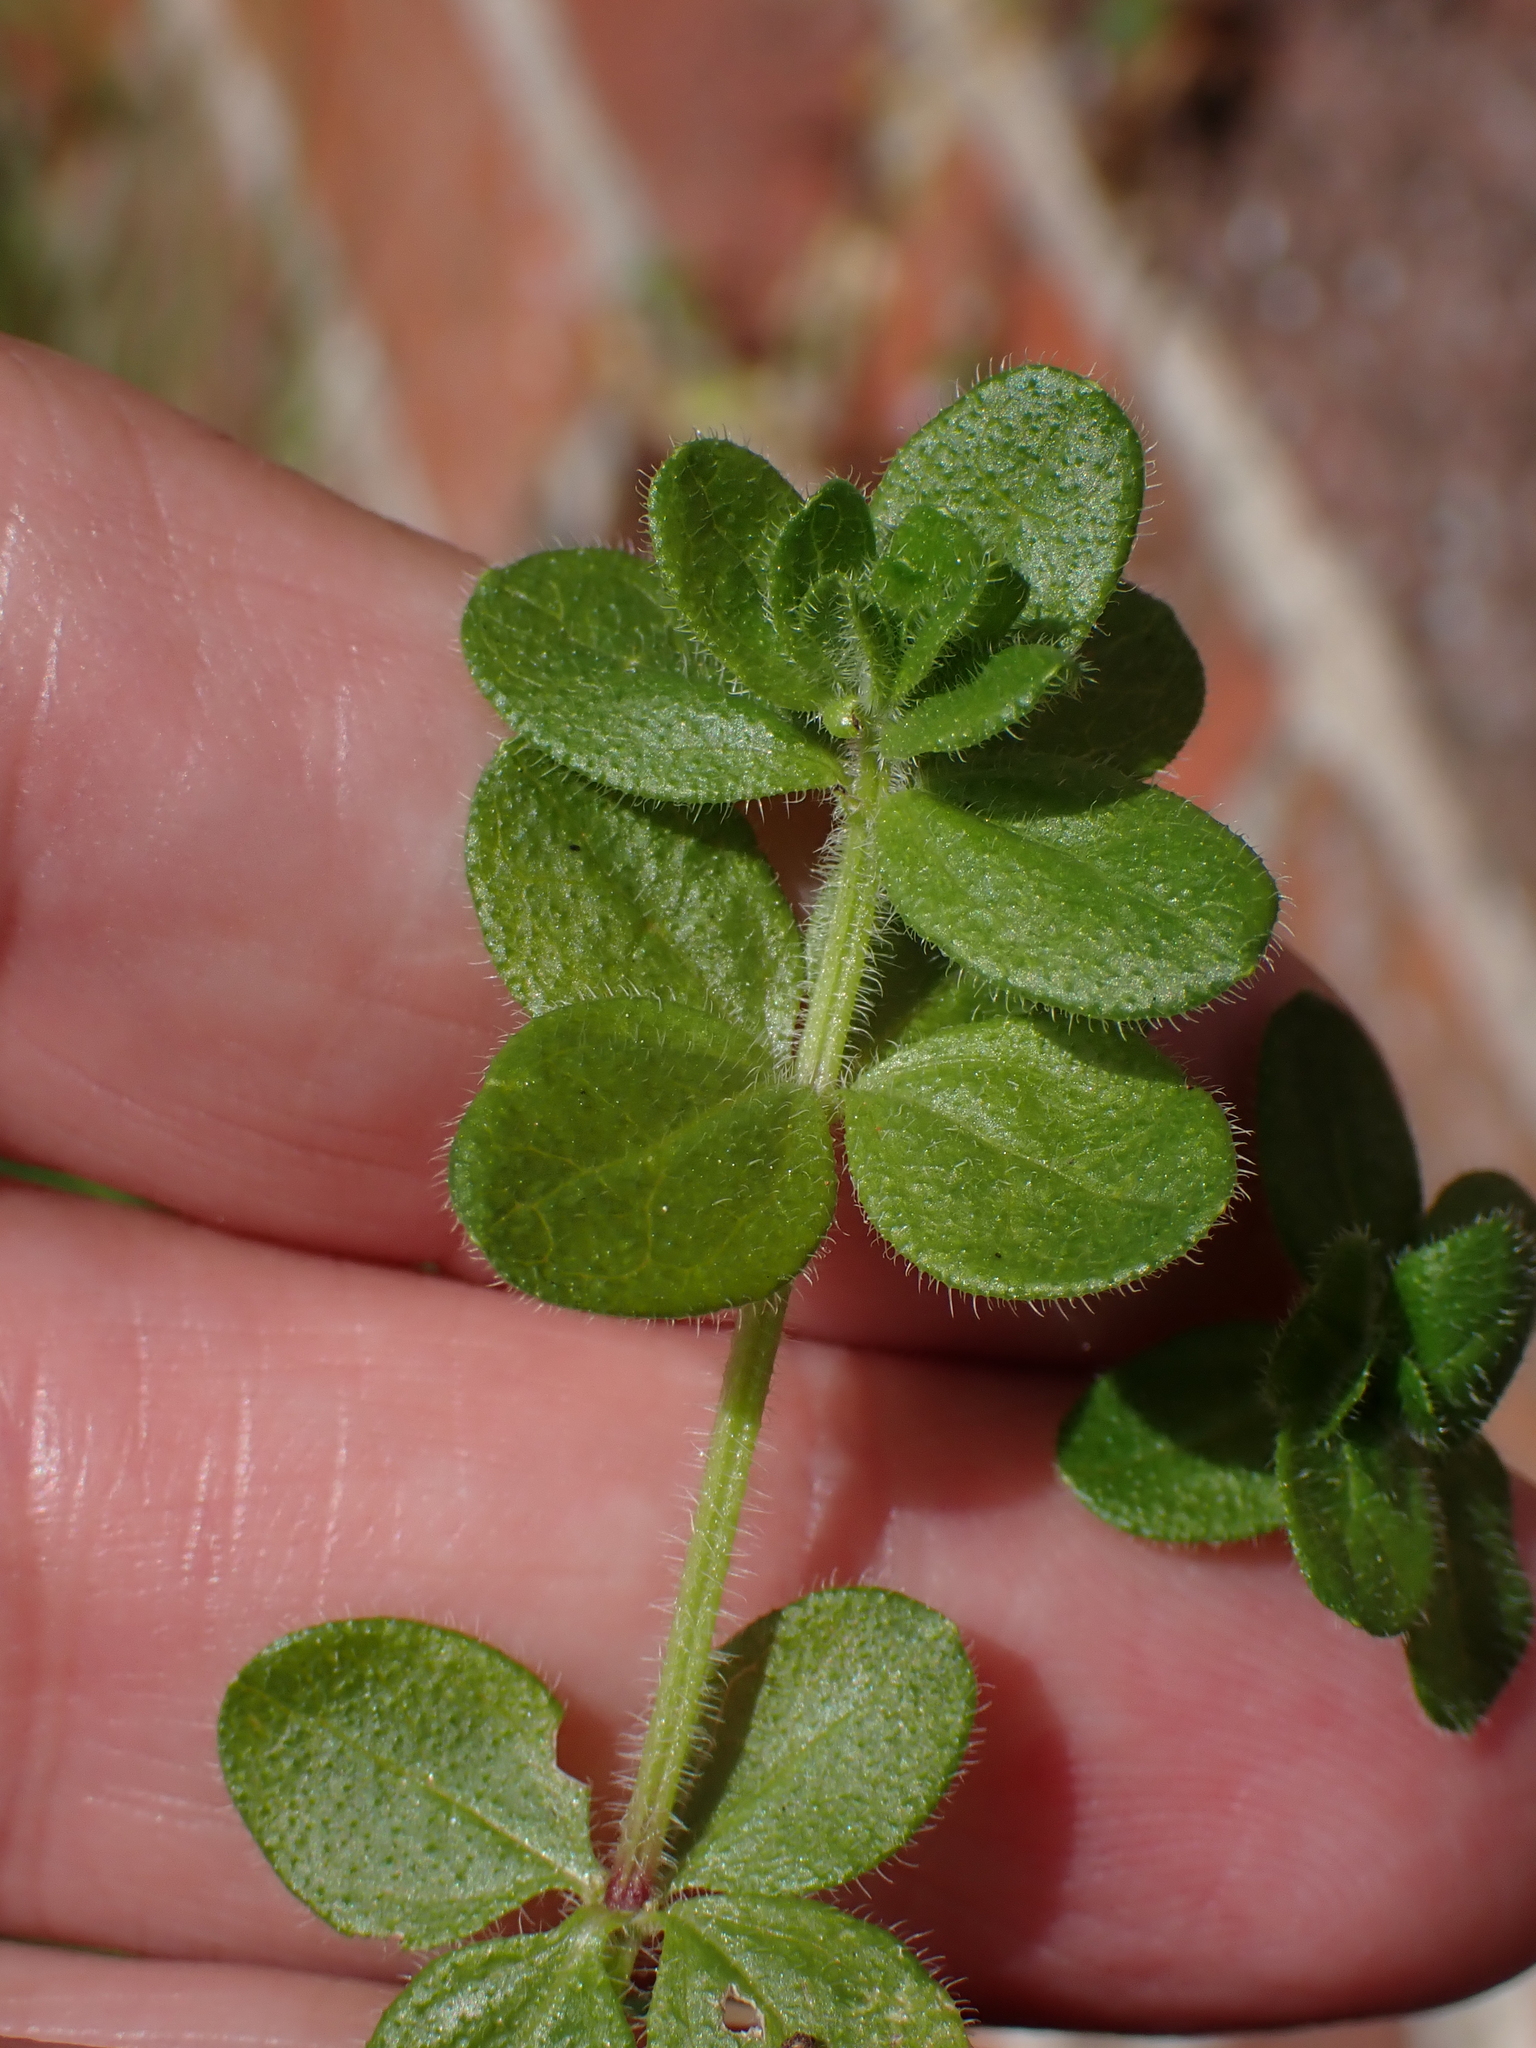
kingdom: Plantae
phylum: Tracheophyta
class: Magnoliopsida
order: Gentianales
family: Rubiaceae
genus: Cruciata
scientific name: Cruciata laevipes
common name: Crosswort
